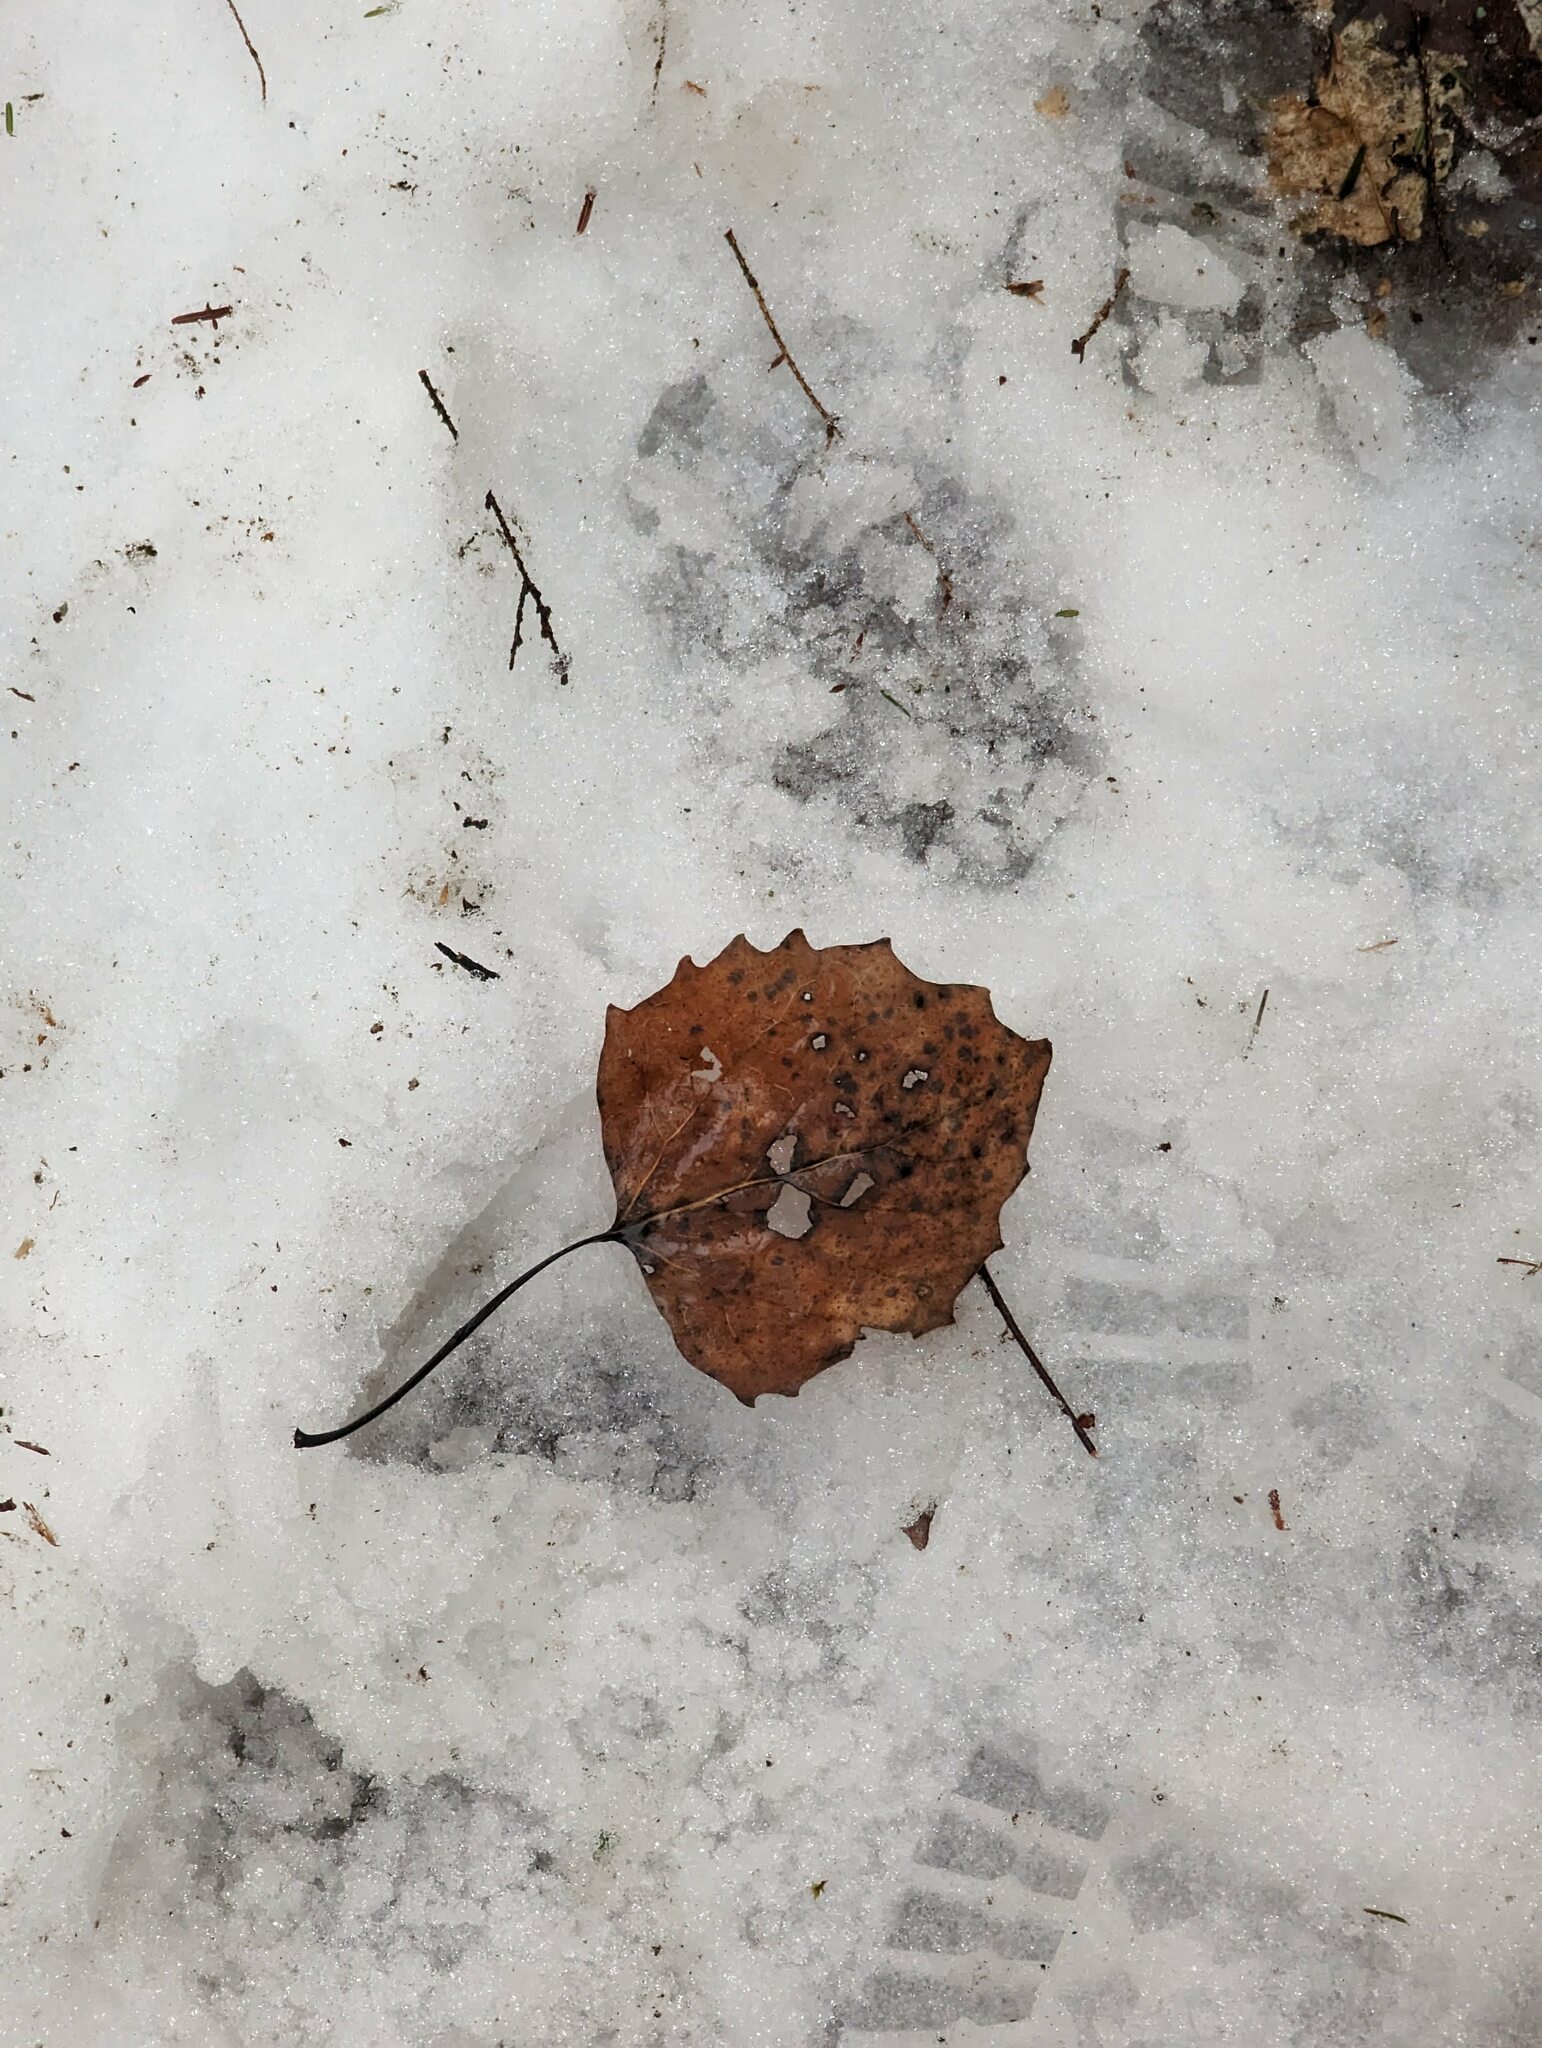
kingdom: Plantae
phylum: Tracheophyta
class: Magnoliopsida
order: Malpighiales
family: Salicaceae
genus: Populus
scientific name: Populus grandidentata
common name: Bigtooth aspen
